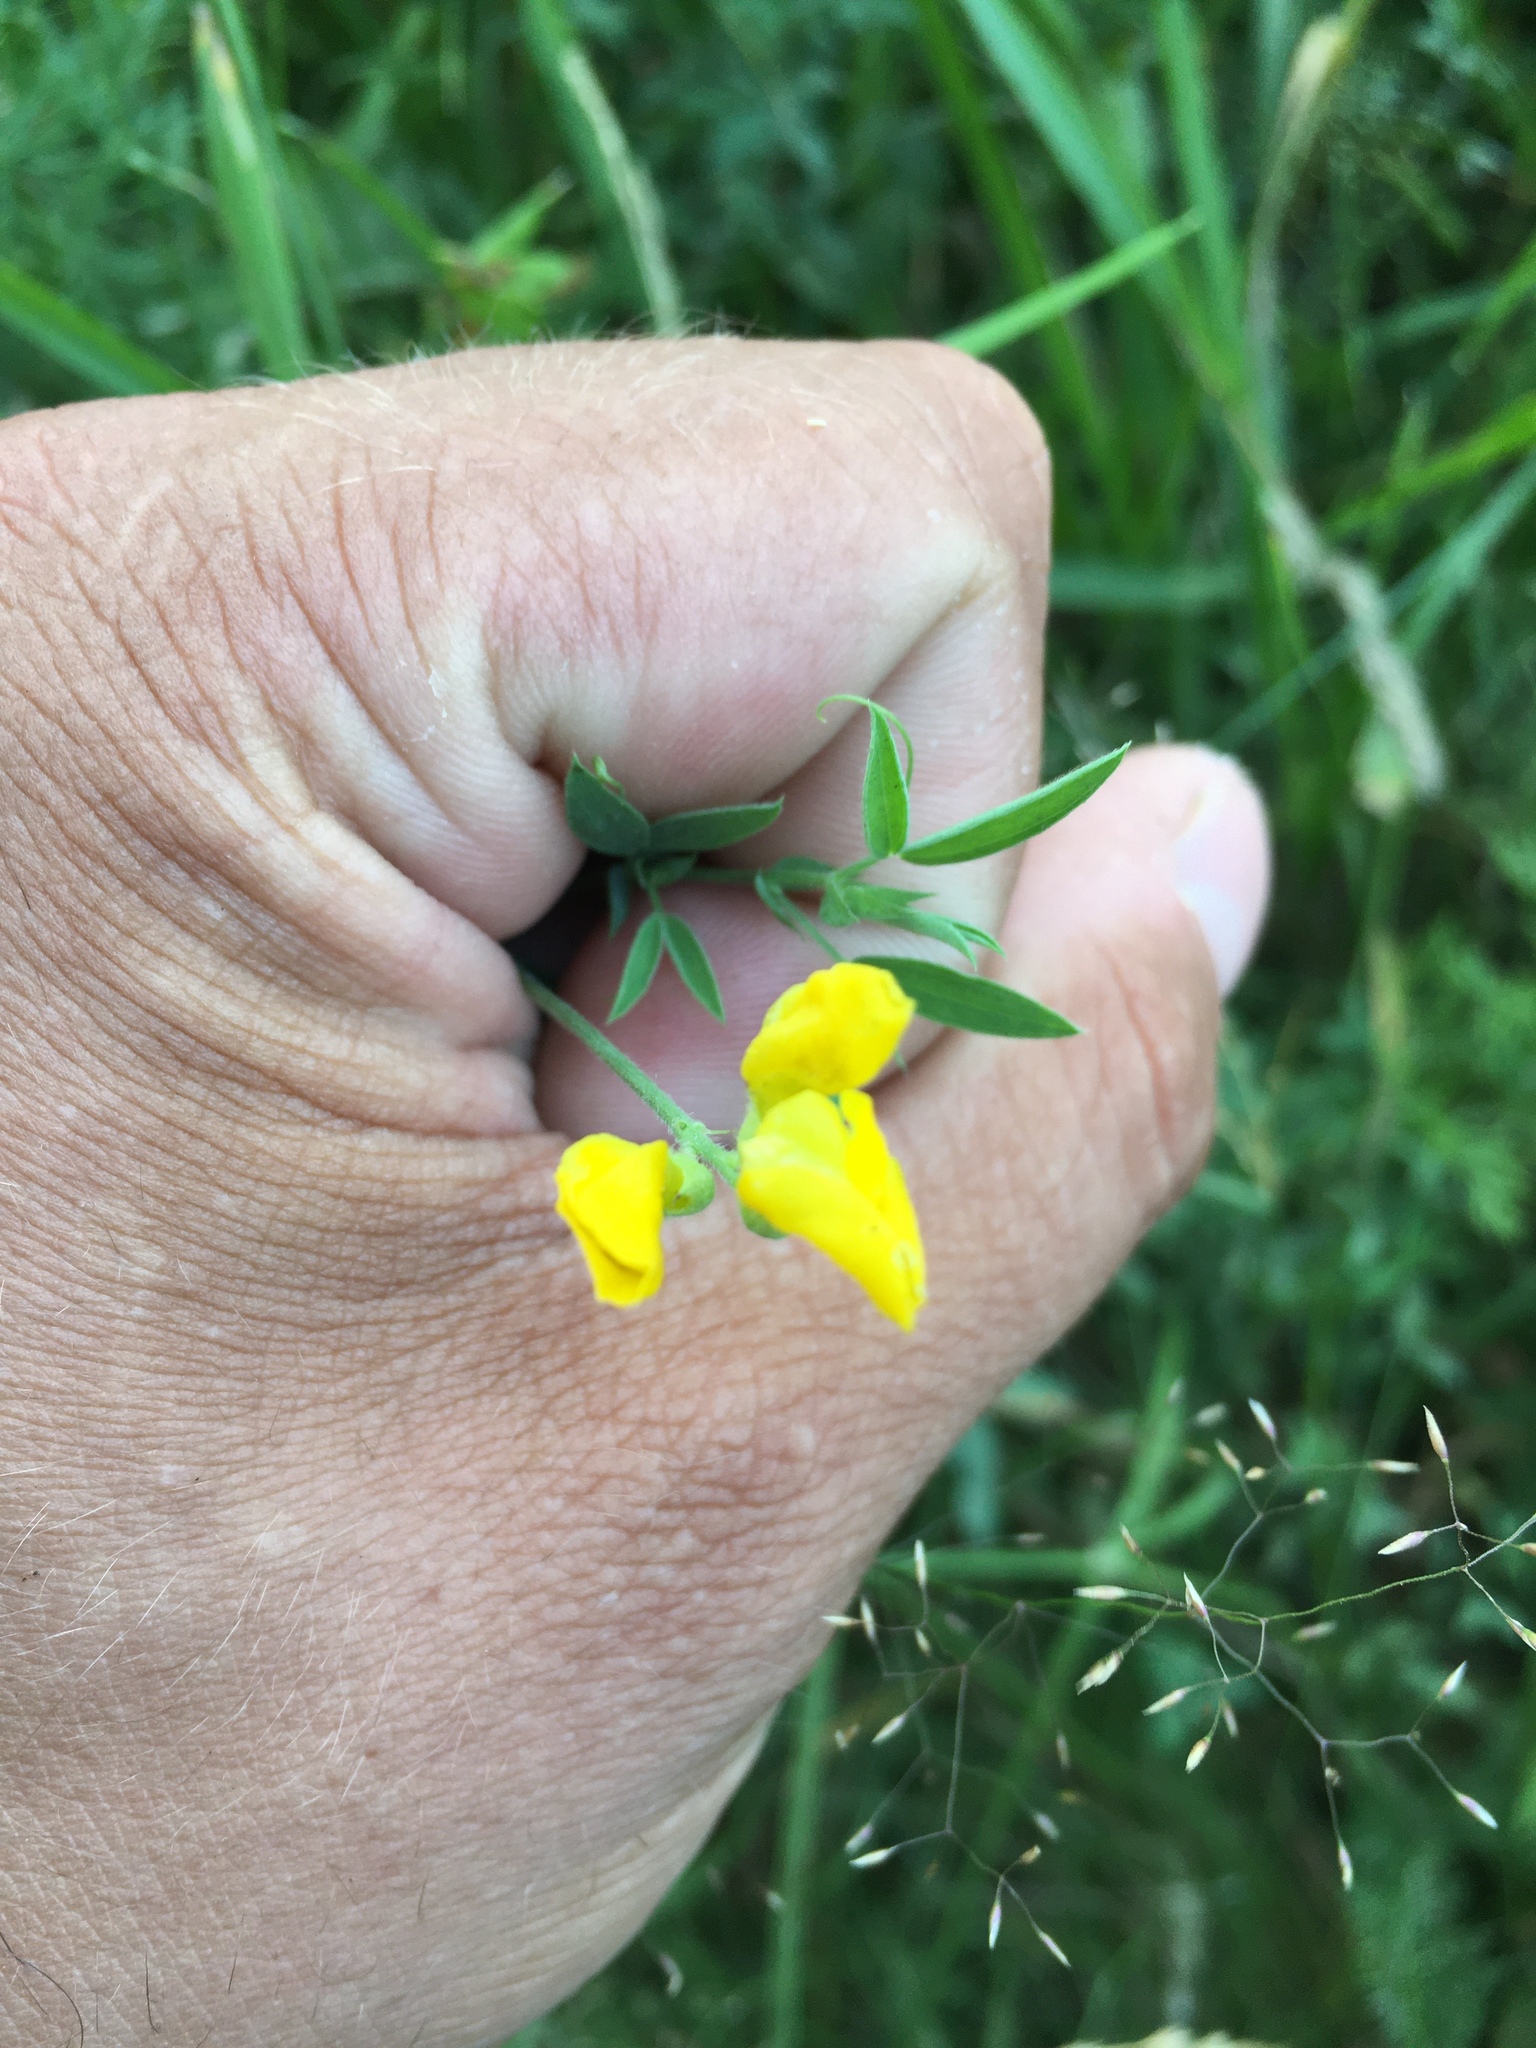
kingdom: Plantae
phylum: Tracheophyta
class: Magnoliopsida
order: Fabales
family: Fabaceae
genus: Lathyrus
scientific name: Lathyrus pratensis
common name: Meadow vetchling
